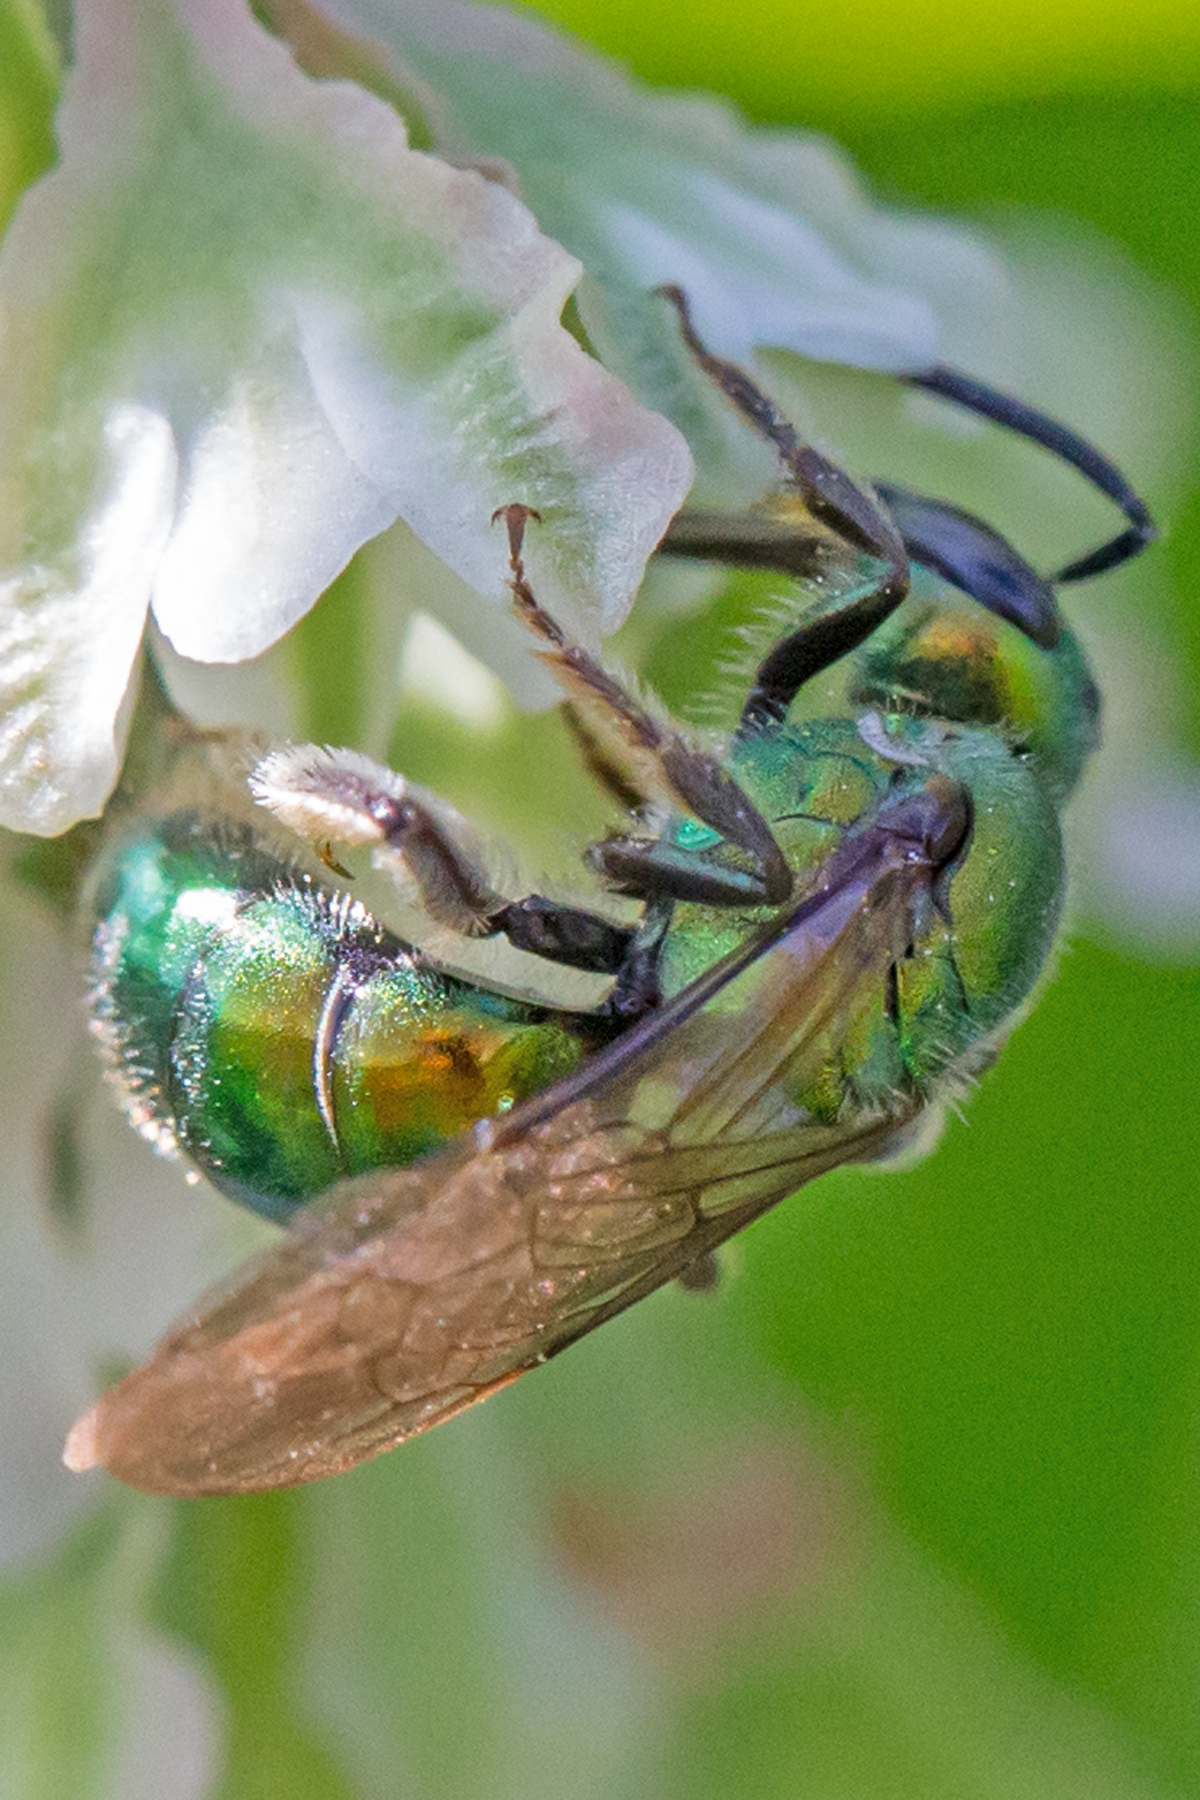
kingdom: Animalia
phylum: Arthropoda
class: Insecta
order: Hymenoptera
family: Halictidae
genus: Augochlora
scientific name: Augochlora pura
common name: Pure green sweat bee
